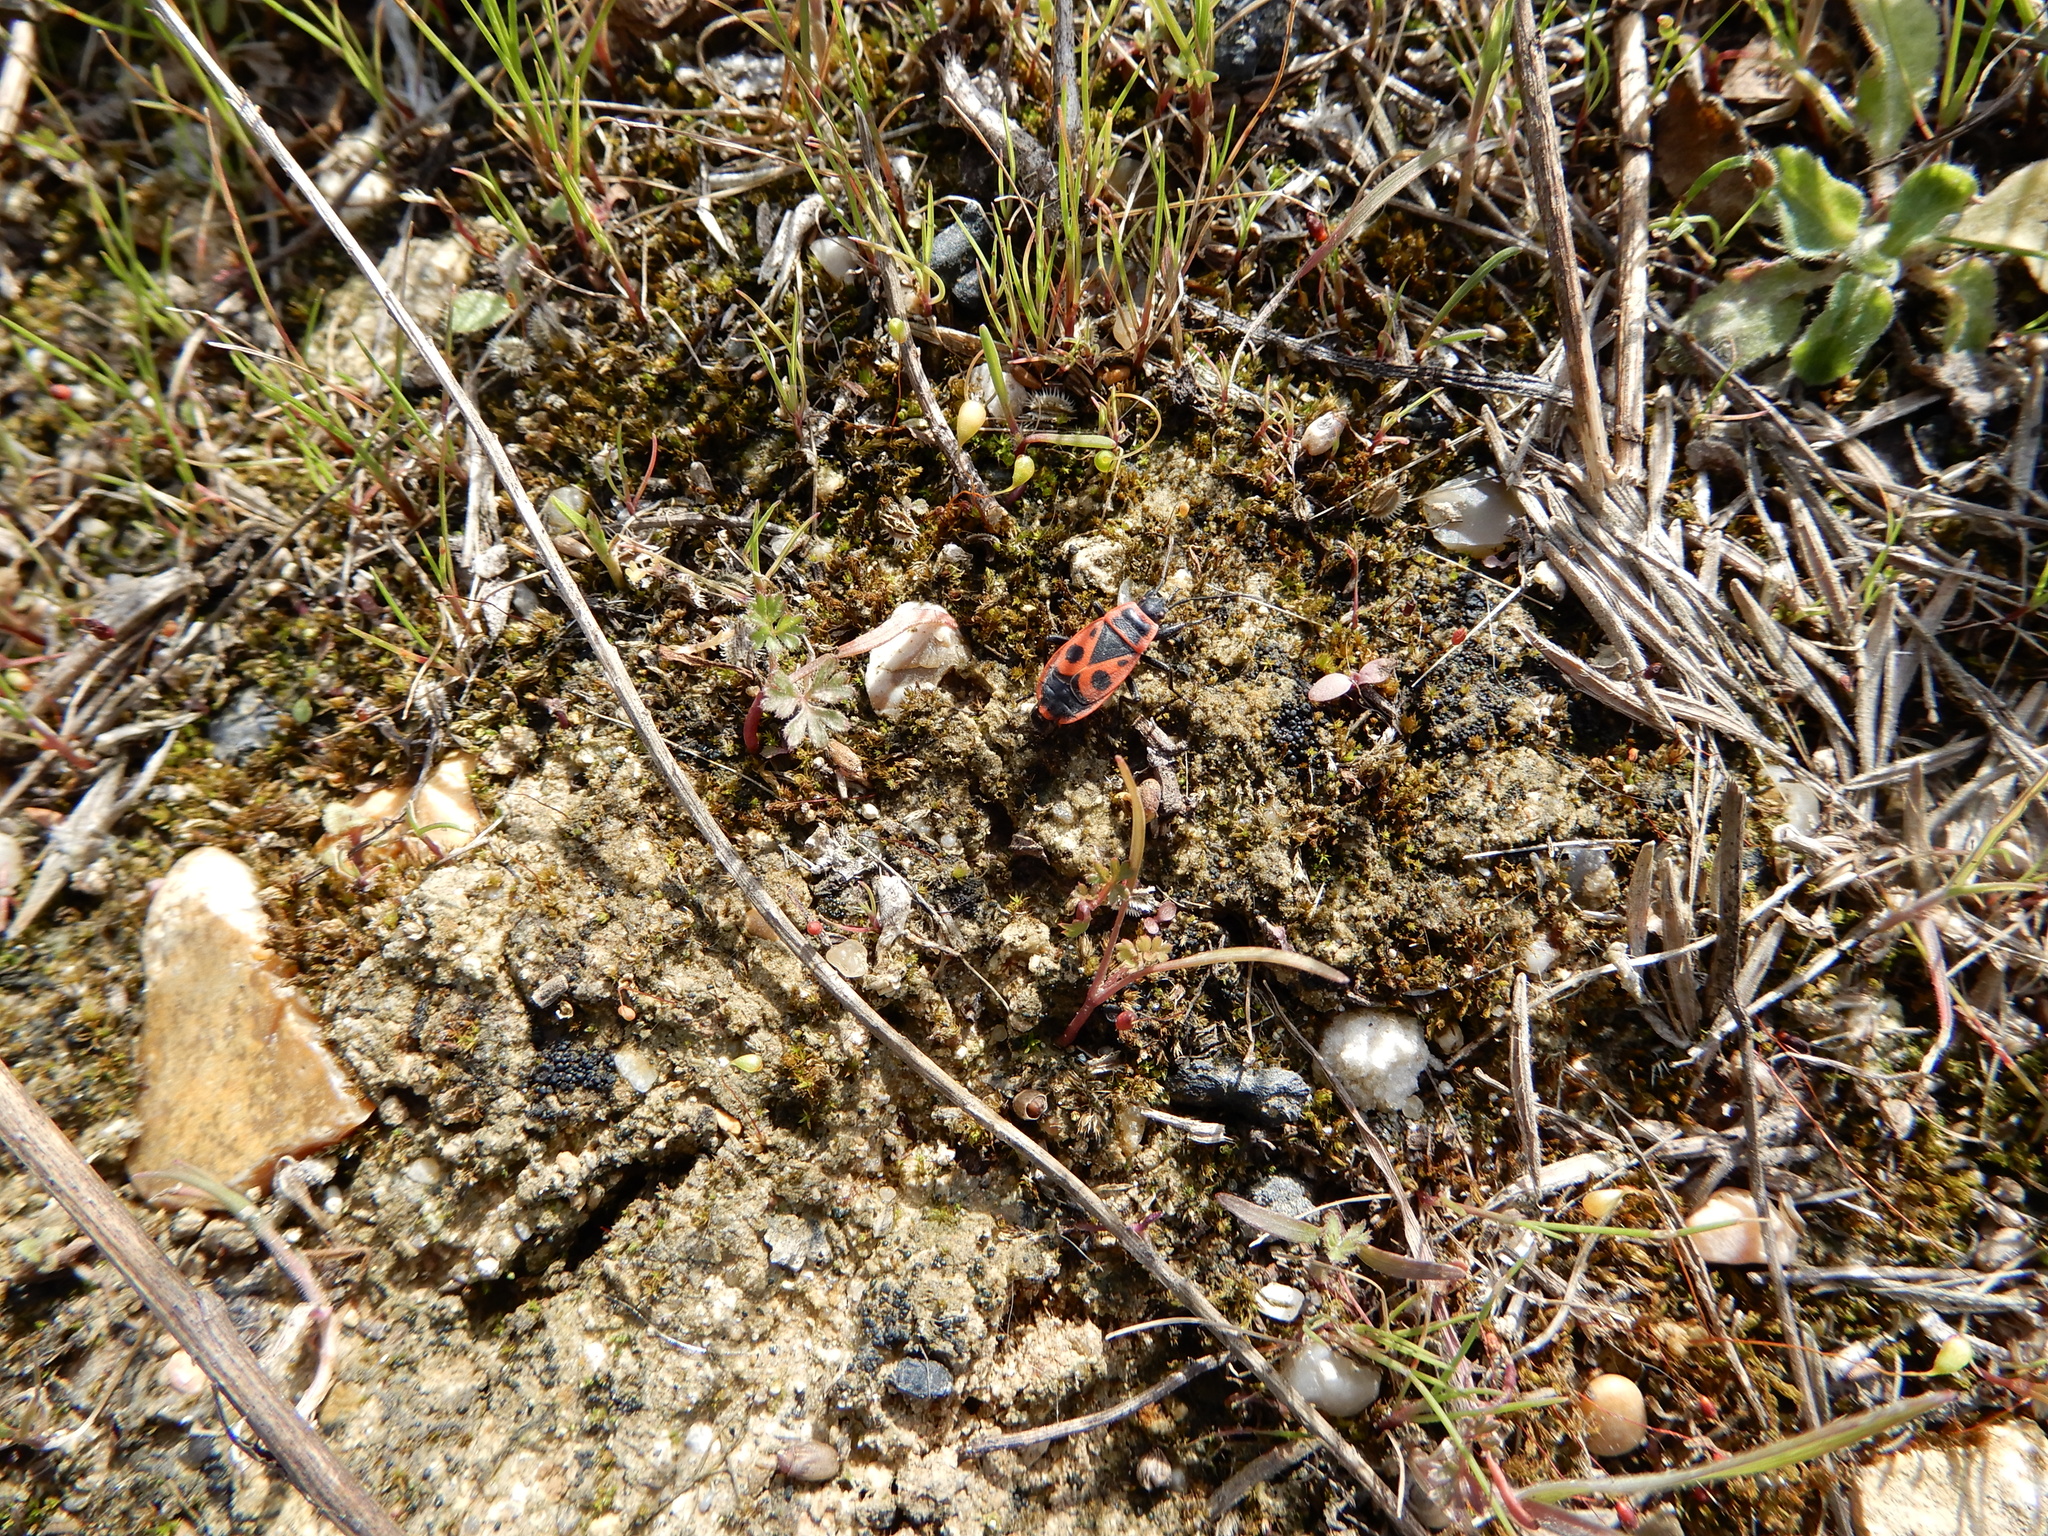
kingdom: Animalia
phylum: Arthropoda
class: Insecta
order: Hemiptera
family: Pyrrhocoridae
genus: Pyrrhocoris
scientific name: Pyrrhocoris apterus
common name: Firebug
